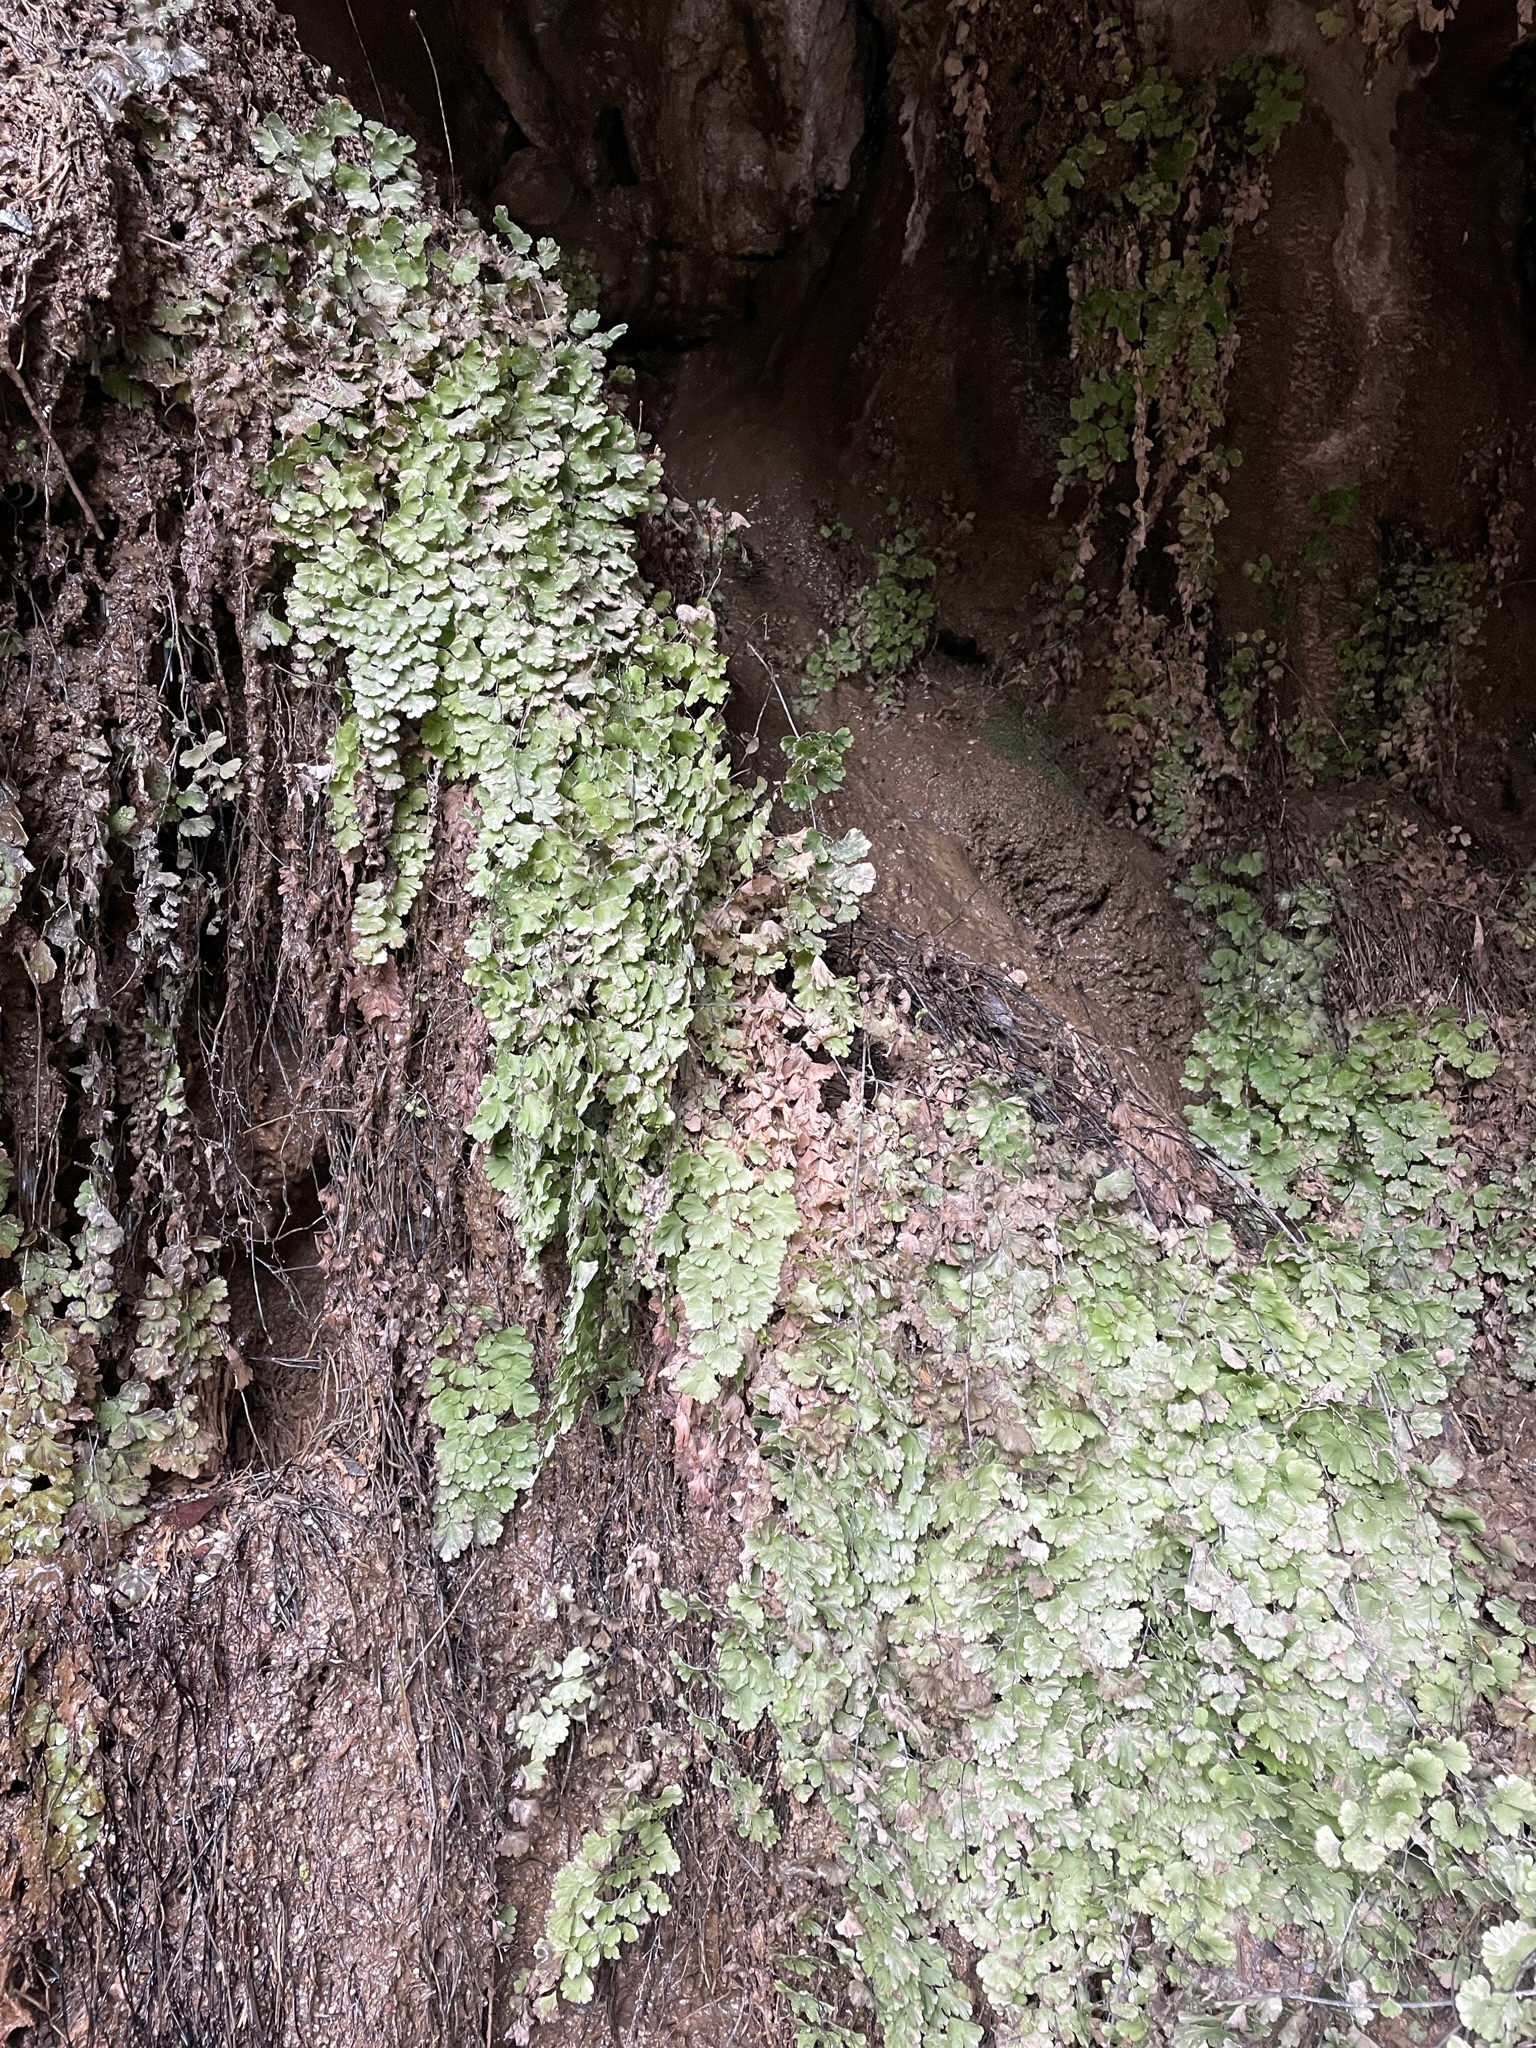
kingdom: Plantae
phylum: Tracheophyta
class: Polypodiopsida
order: Polypodiales
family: Pteridaceae
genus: Adiantum
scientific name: Adiantum capillus-veneris
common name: Maidenhair fern
